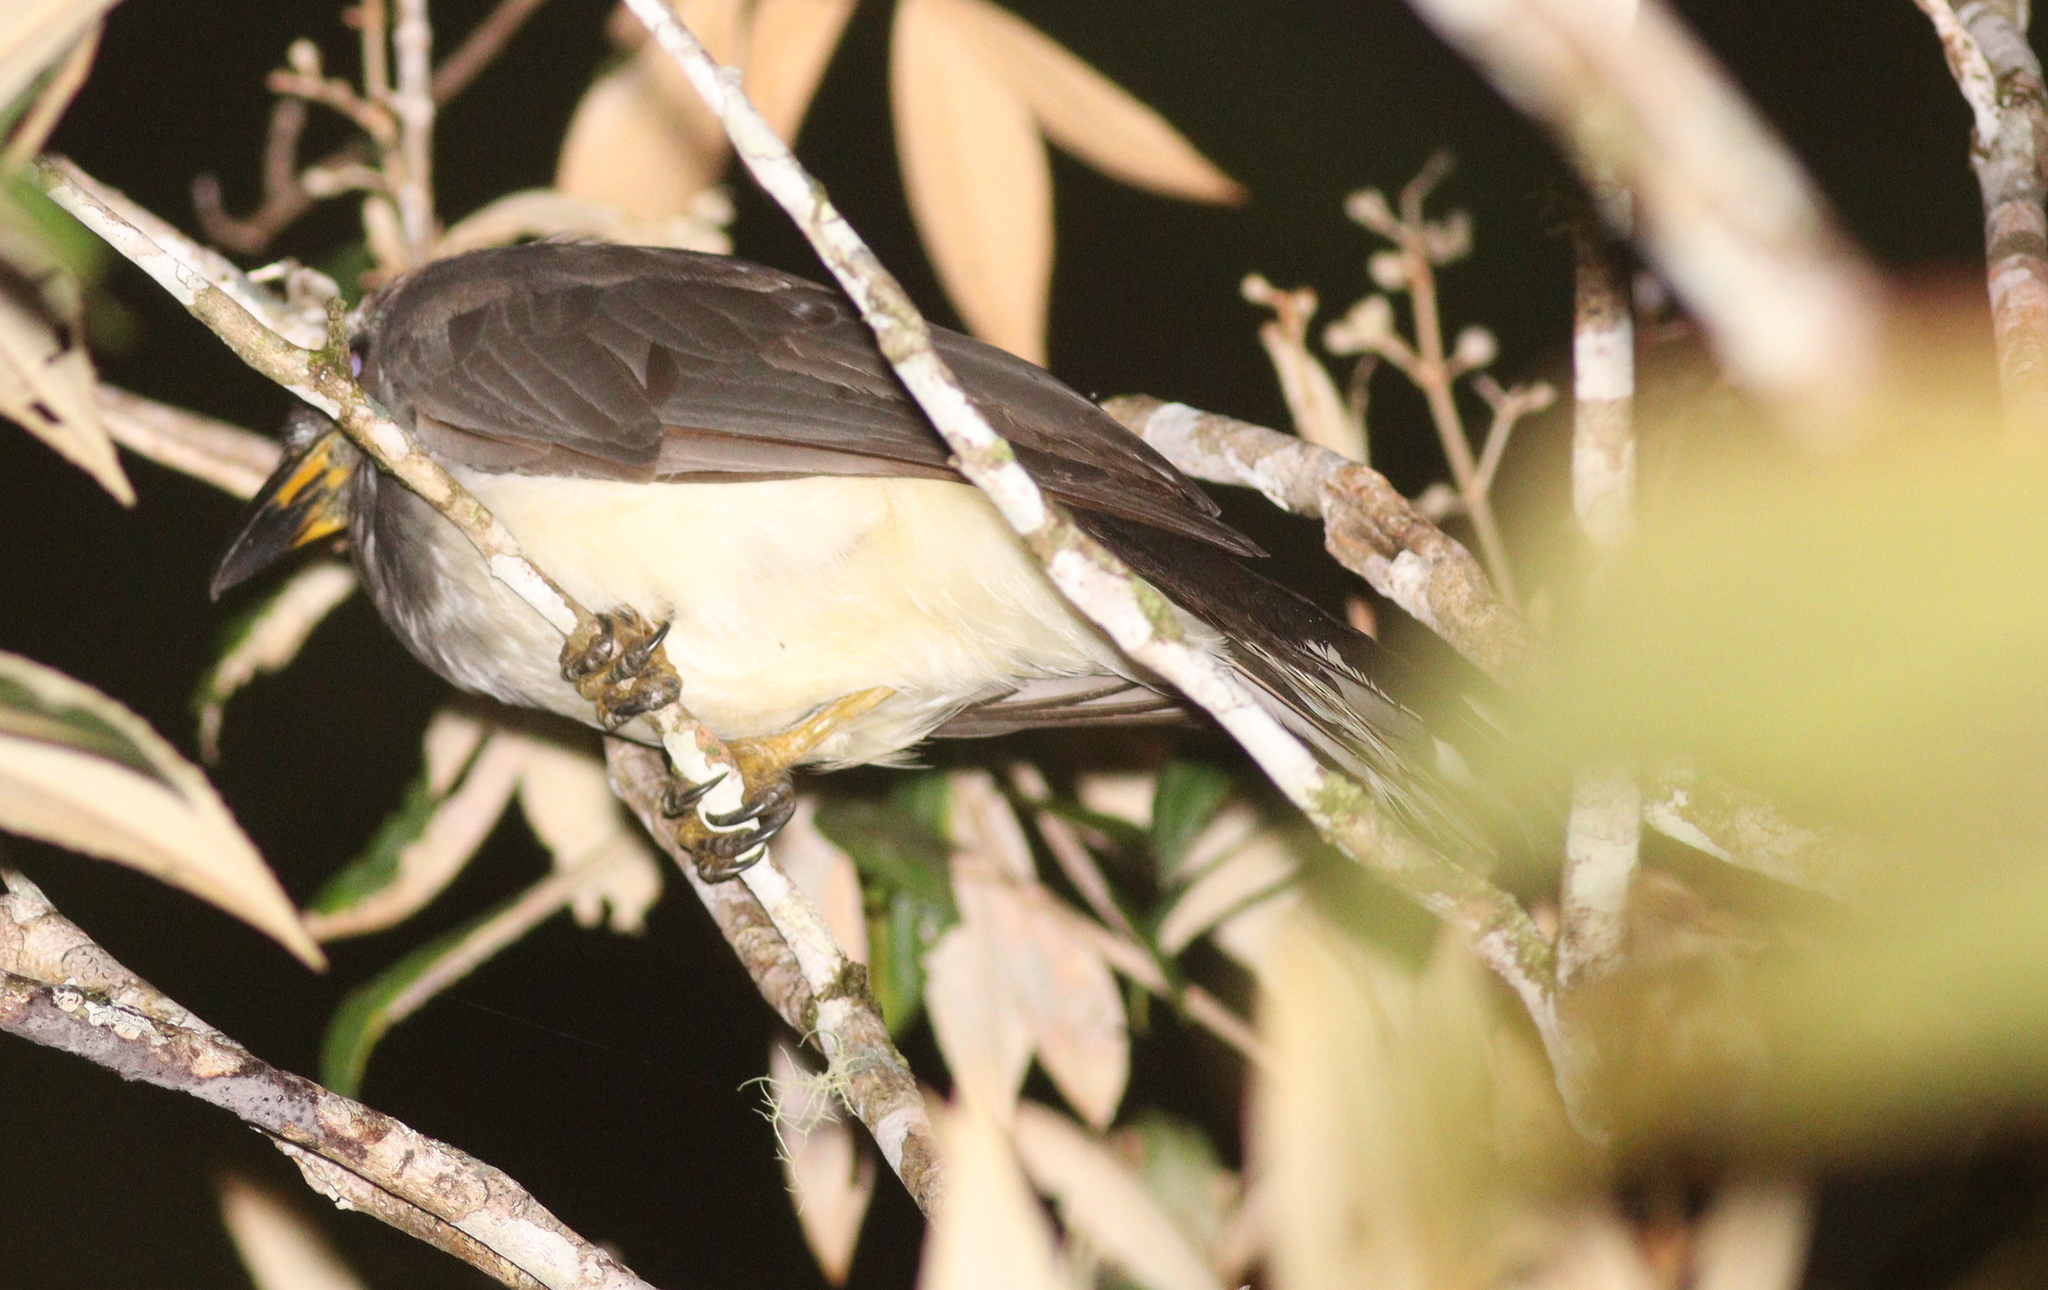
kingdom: Animalia
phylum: Chordata
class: Aves
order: Passeriformes
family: Corvidae
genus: Psilorhinus
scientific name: Psilorhinus morio
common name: Brown jay
